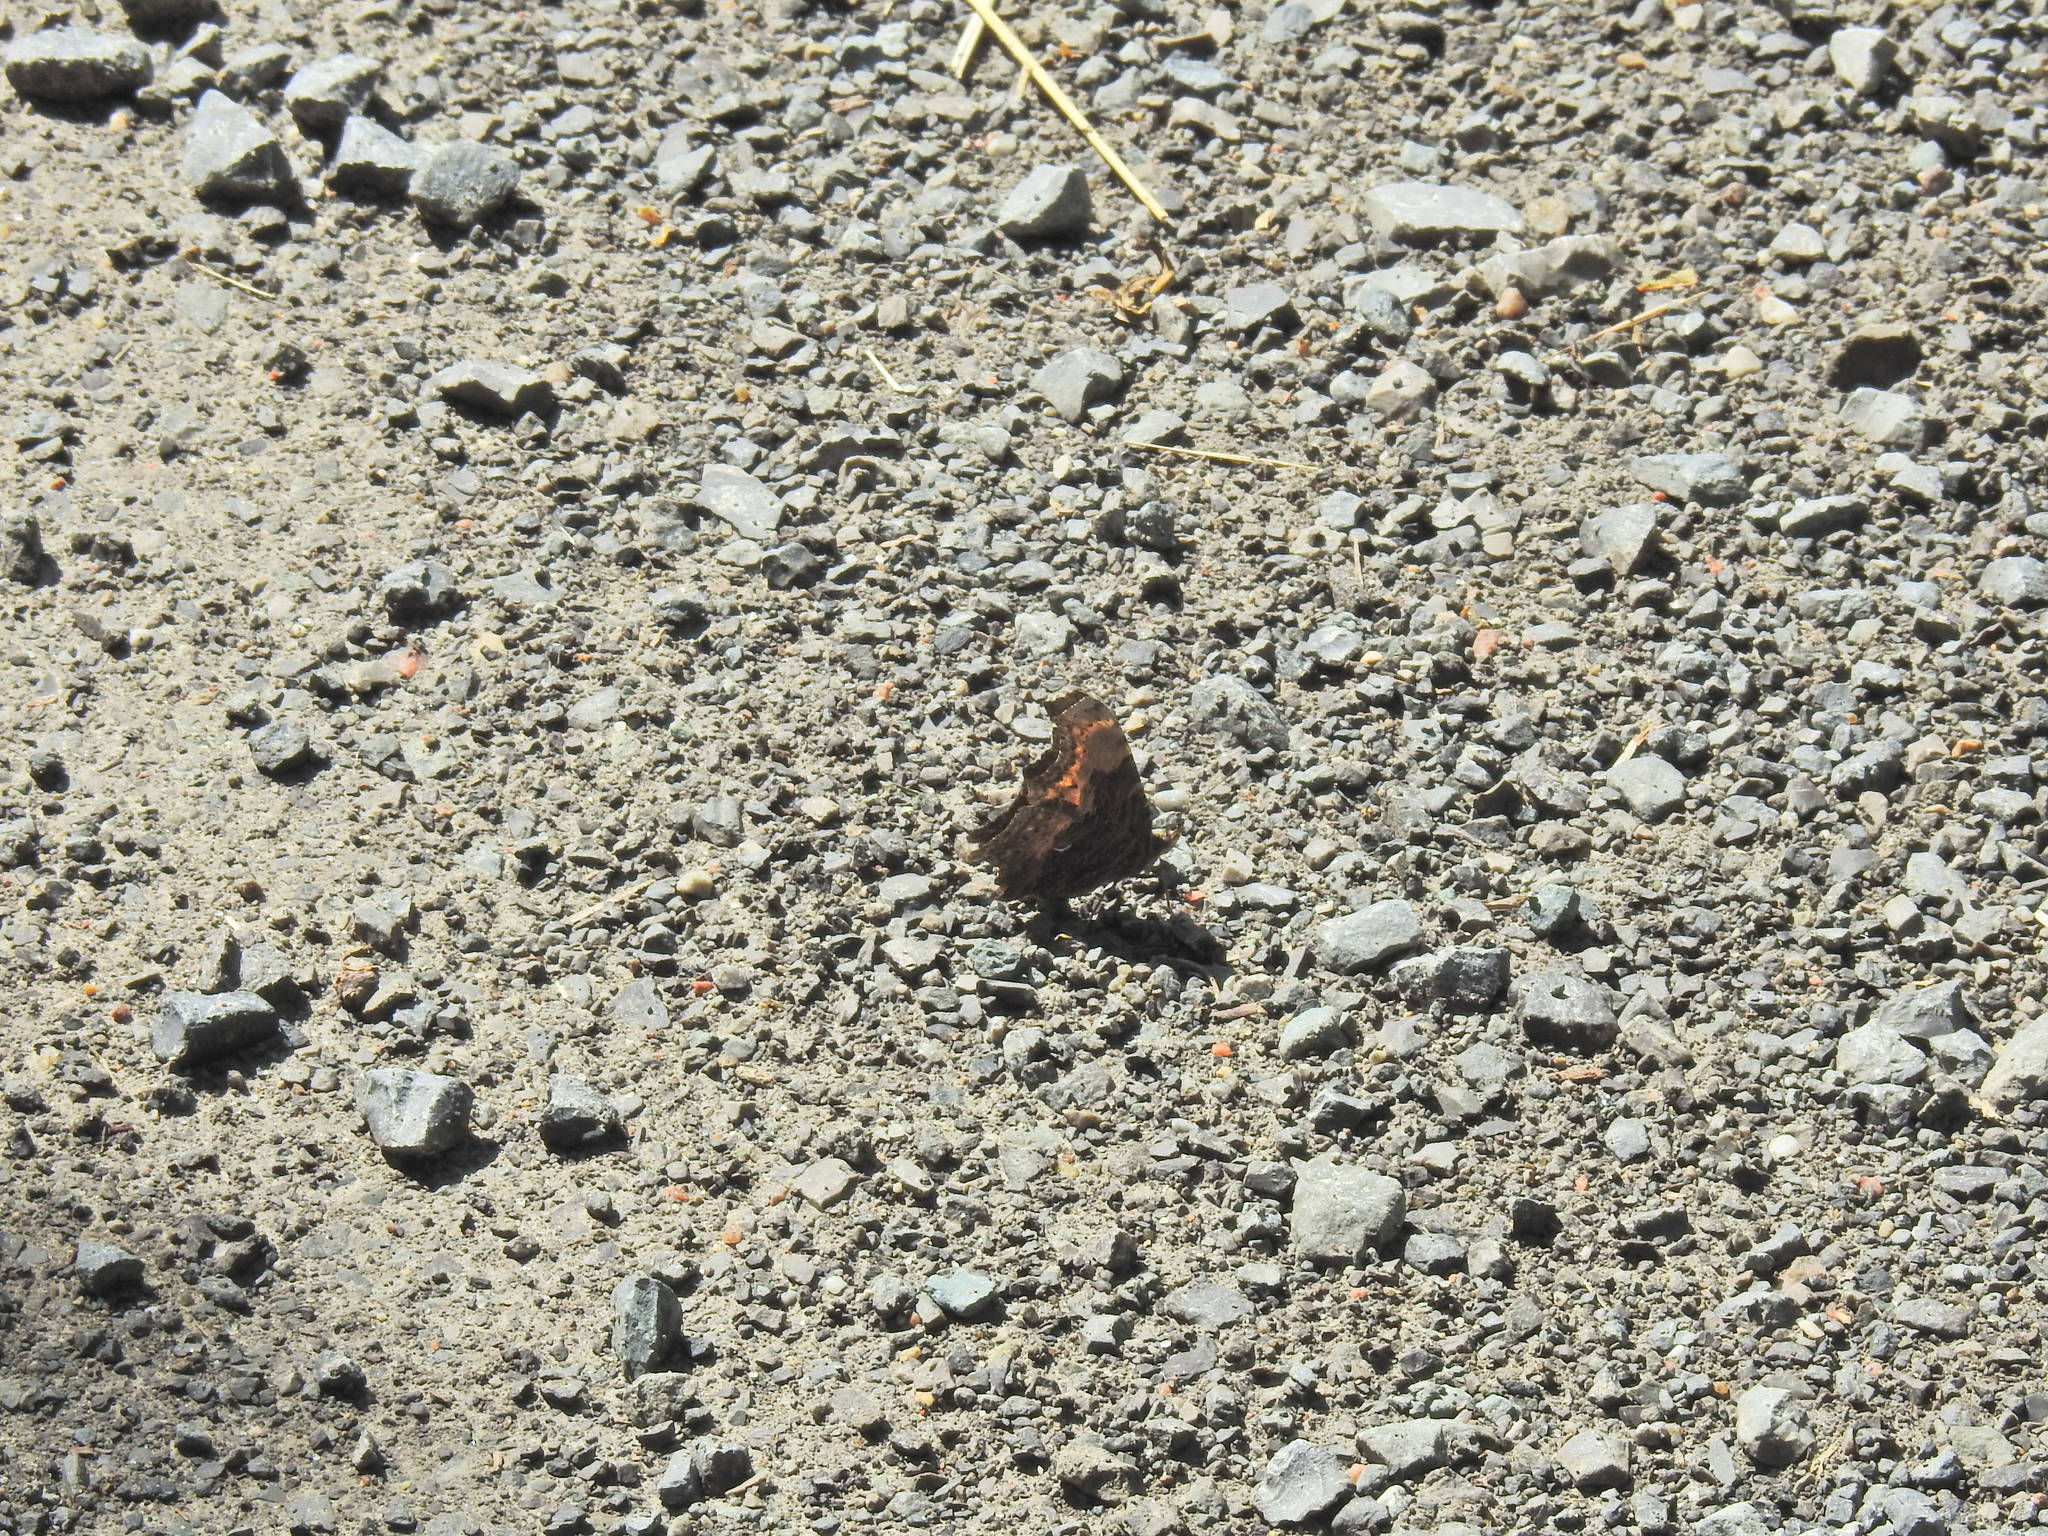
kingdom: Animalia
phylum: Arthropoda
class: Insecta
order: Lepidoptera
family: Nymphalidae
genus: Polygonia
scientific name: Polygonia progne
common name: Gray comma
